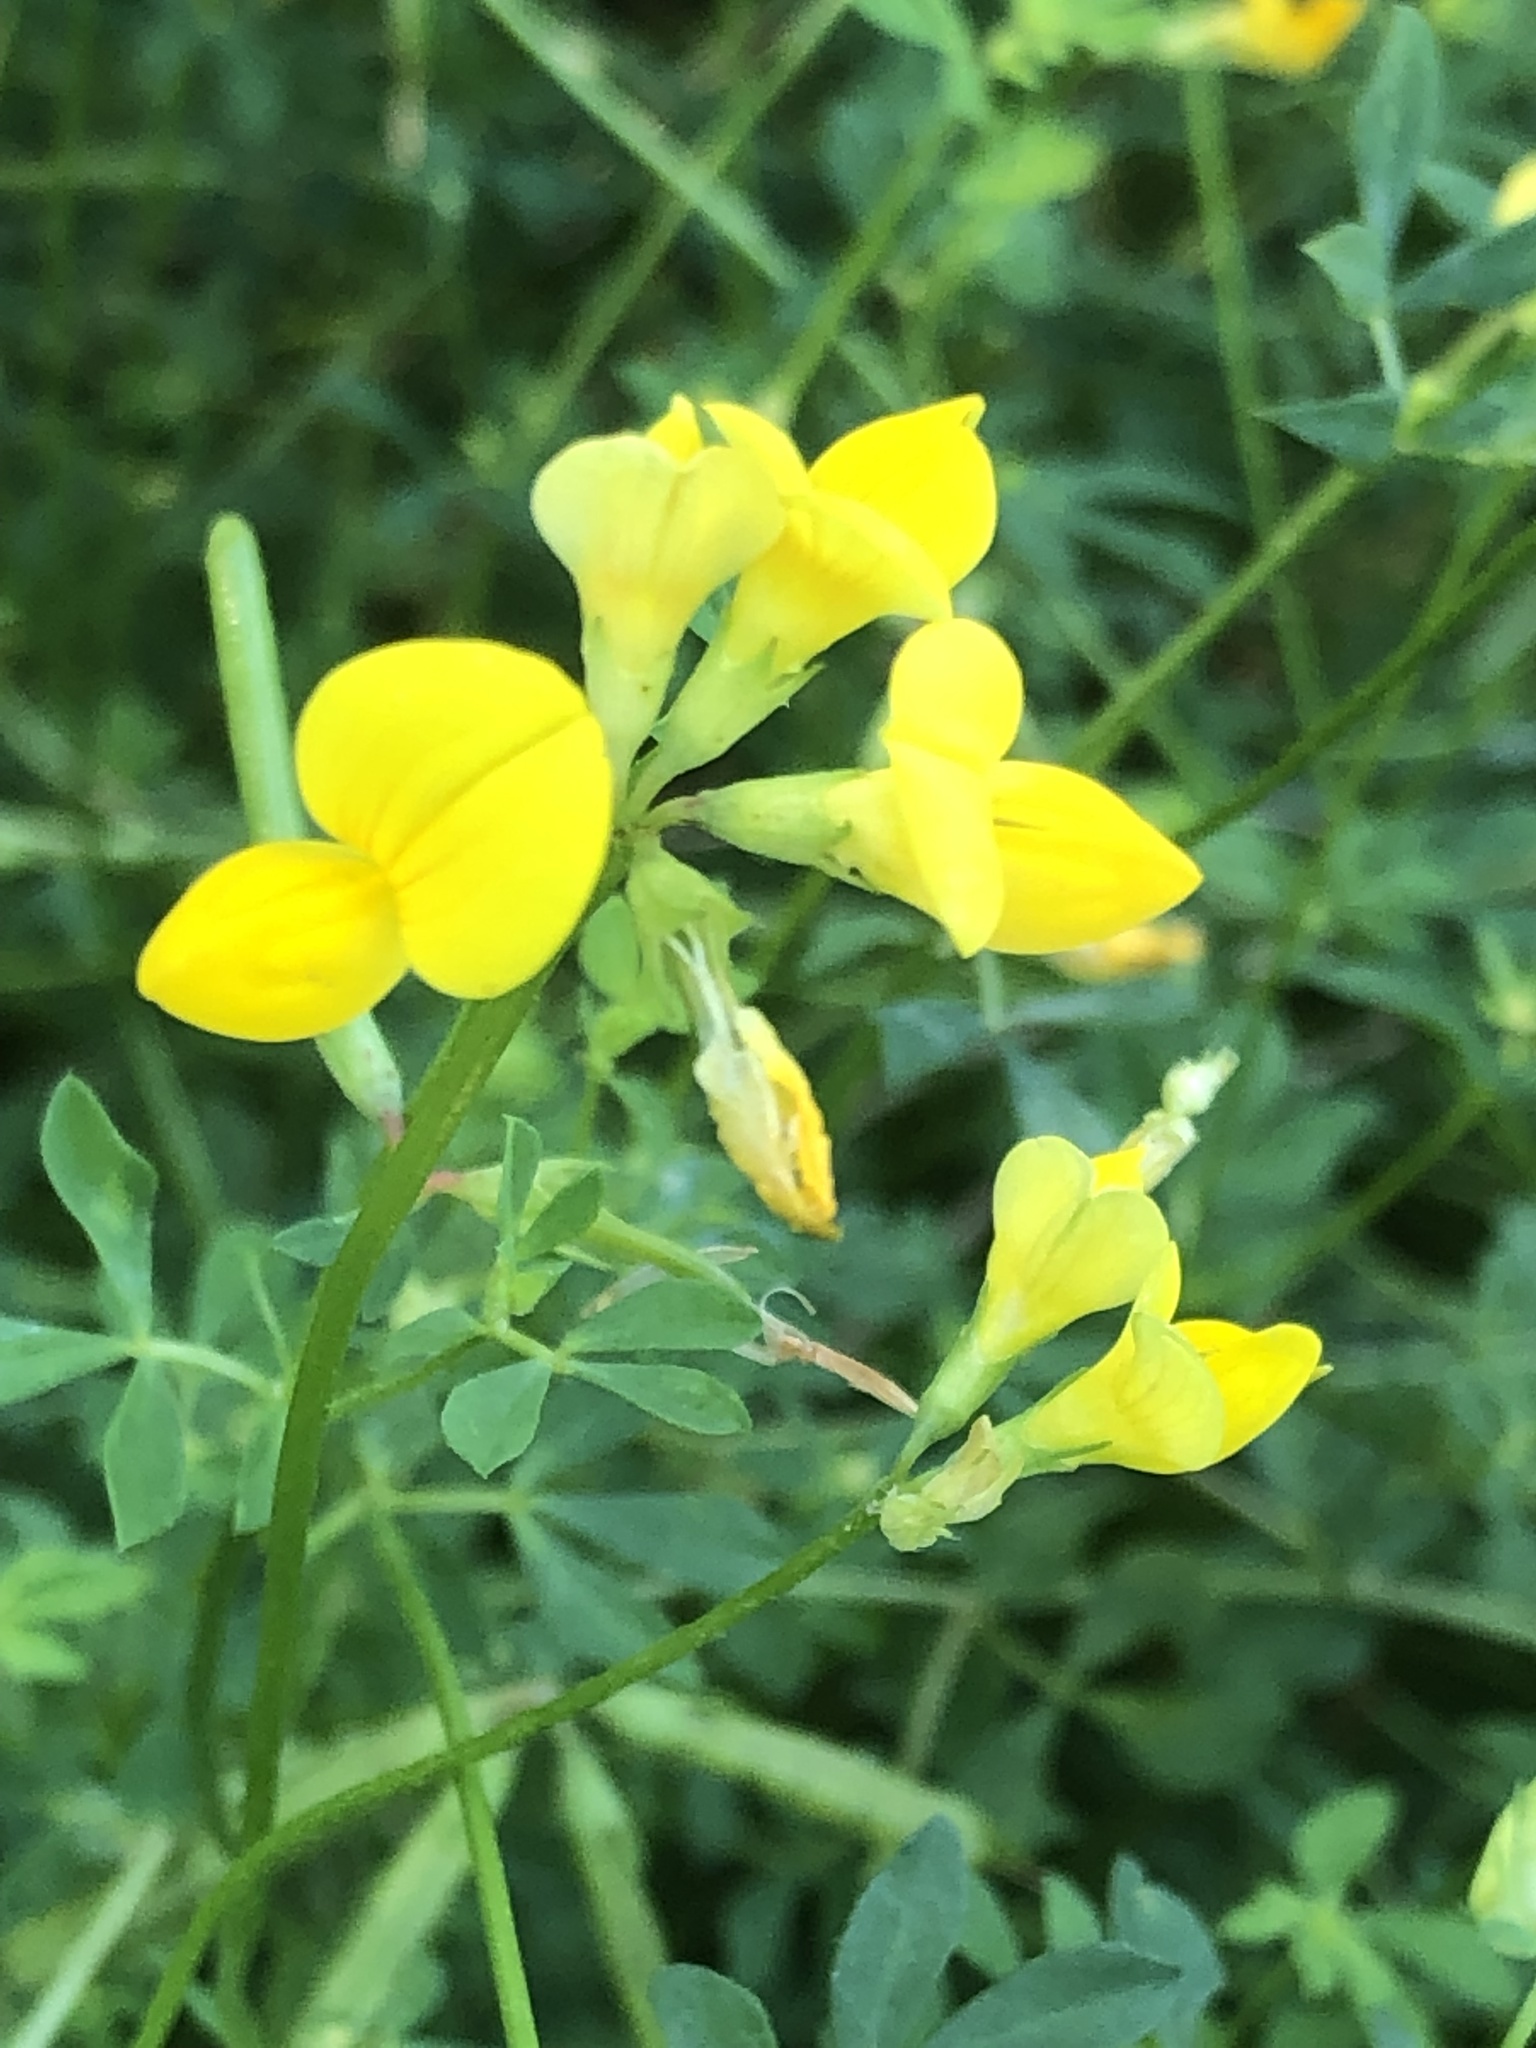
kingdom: Plantae
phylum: Tracheophyta
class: Magnoliopsida
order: Fabales
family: Fabaceae
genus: Lotus
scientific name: Lotus corniculatus
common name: Common bird's-foot-trefoil
